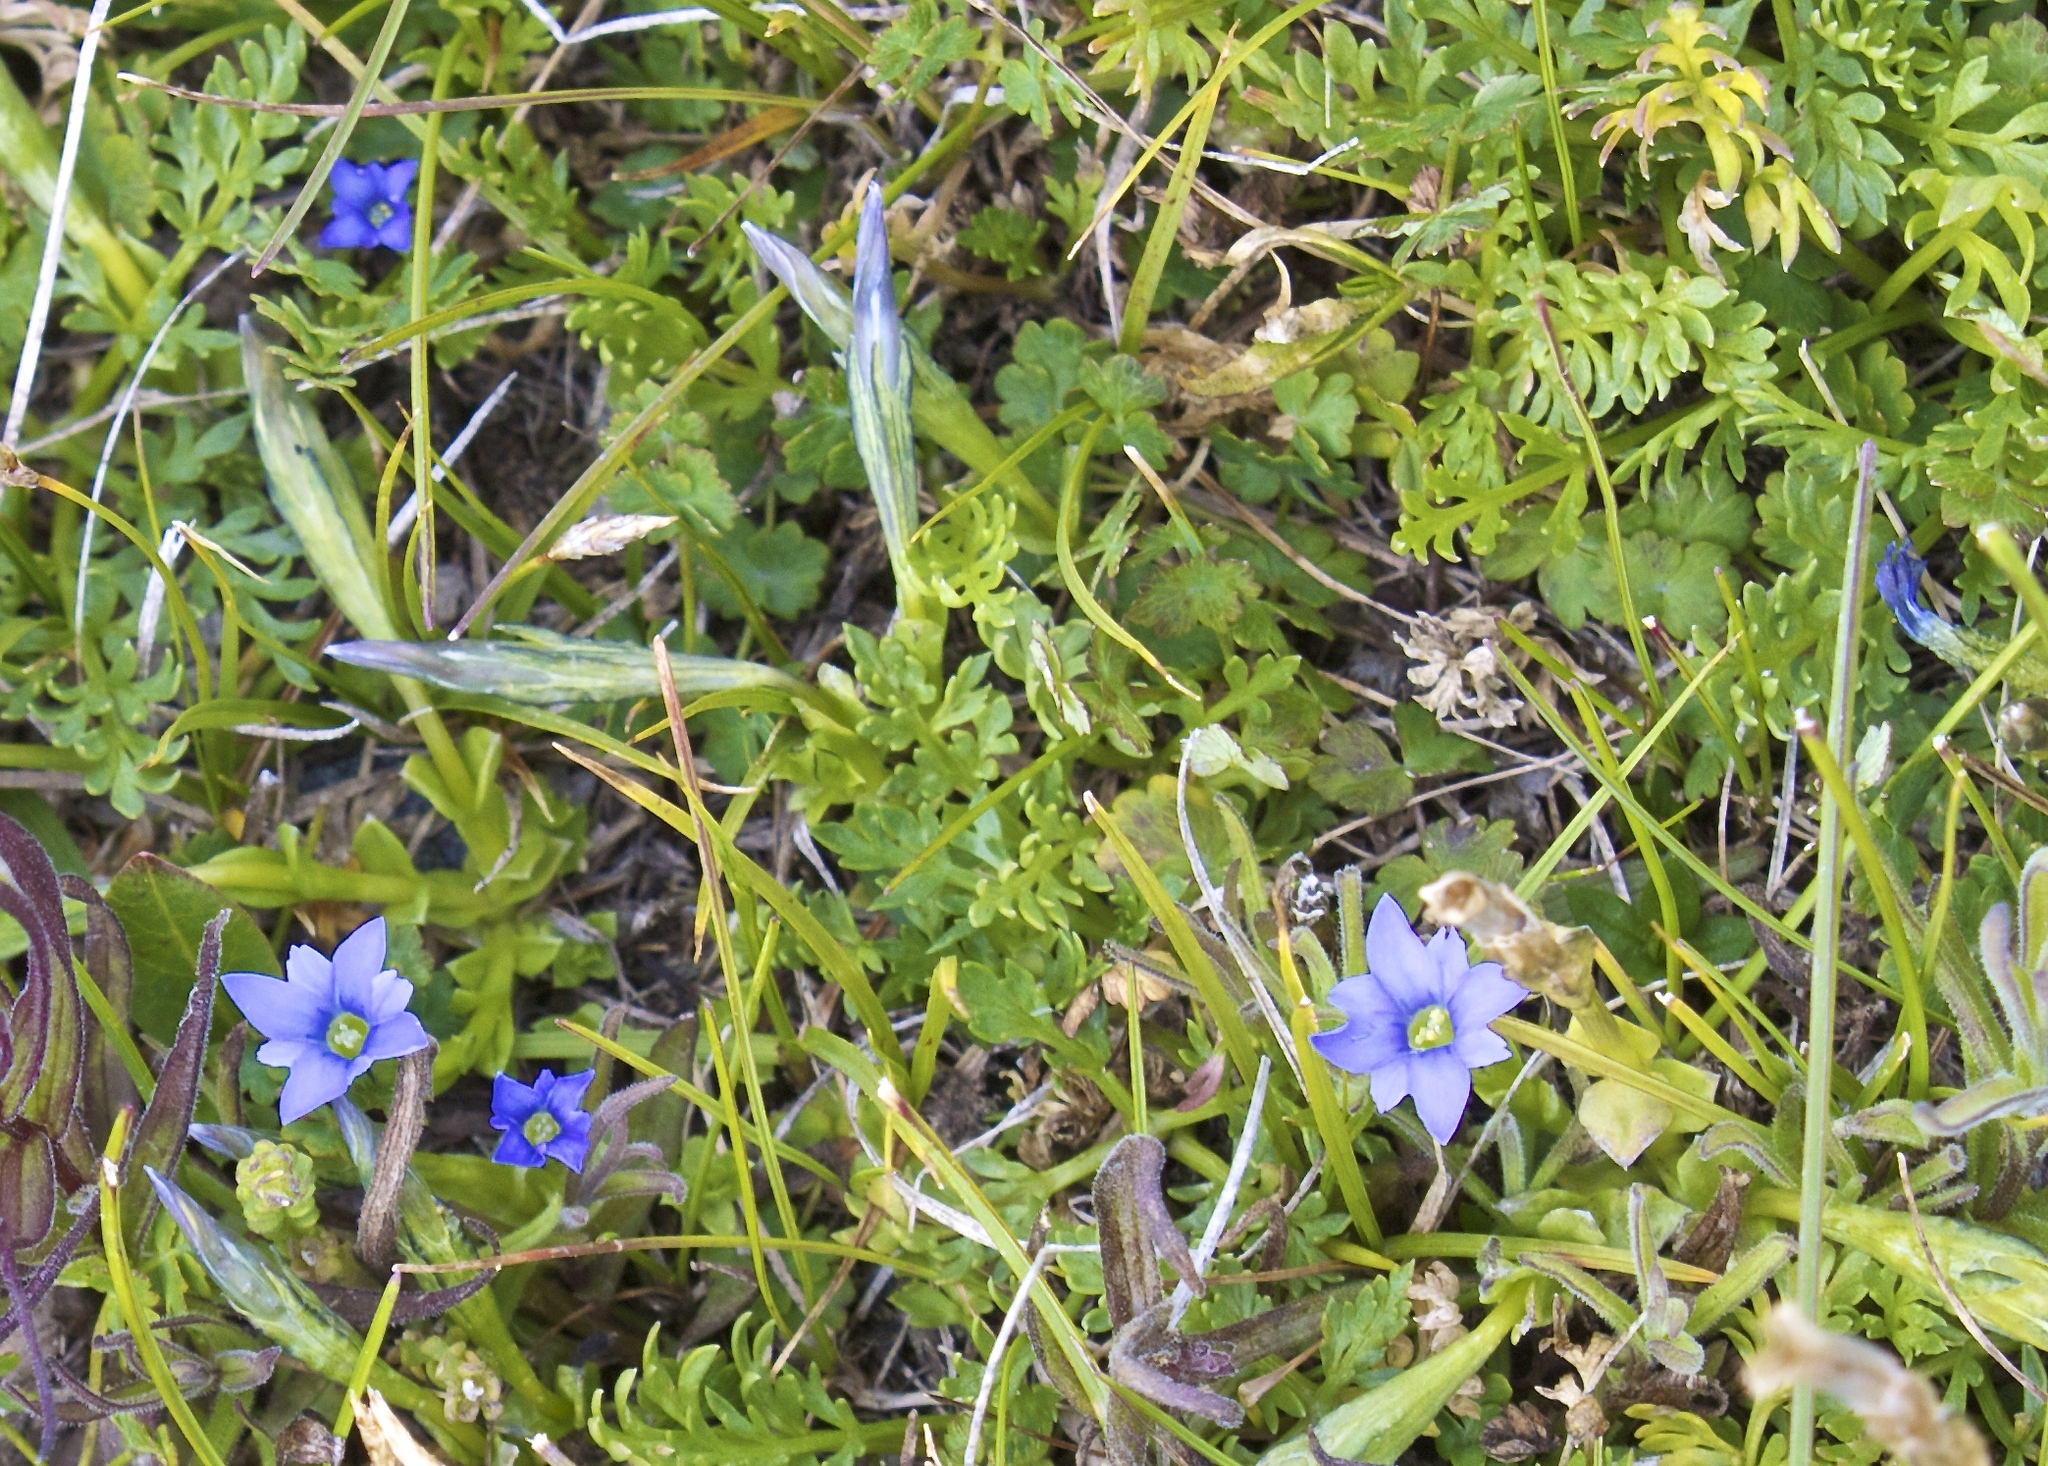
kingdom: Plantae
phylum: Tracheophyta
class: Magnoliopsida
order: Gentianales
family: Gentianaceae
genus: Gentiana
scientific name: Gentiana prostrata
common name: Moss gentian
